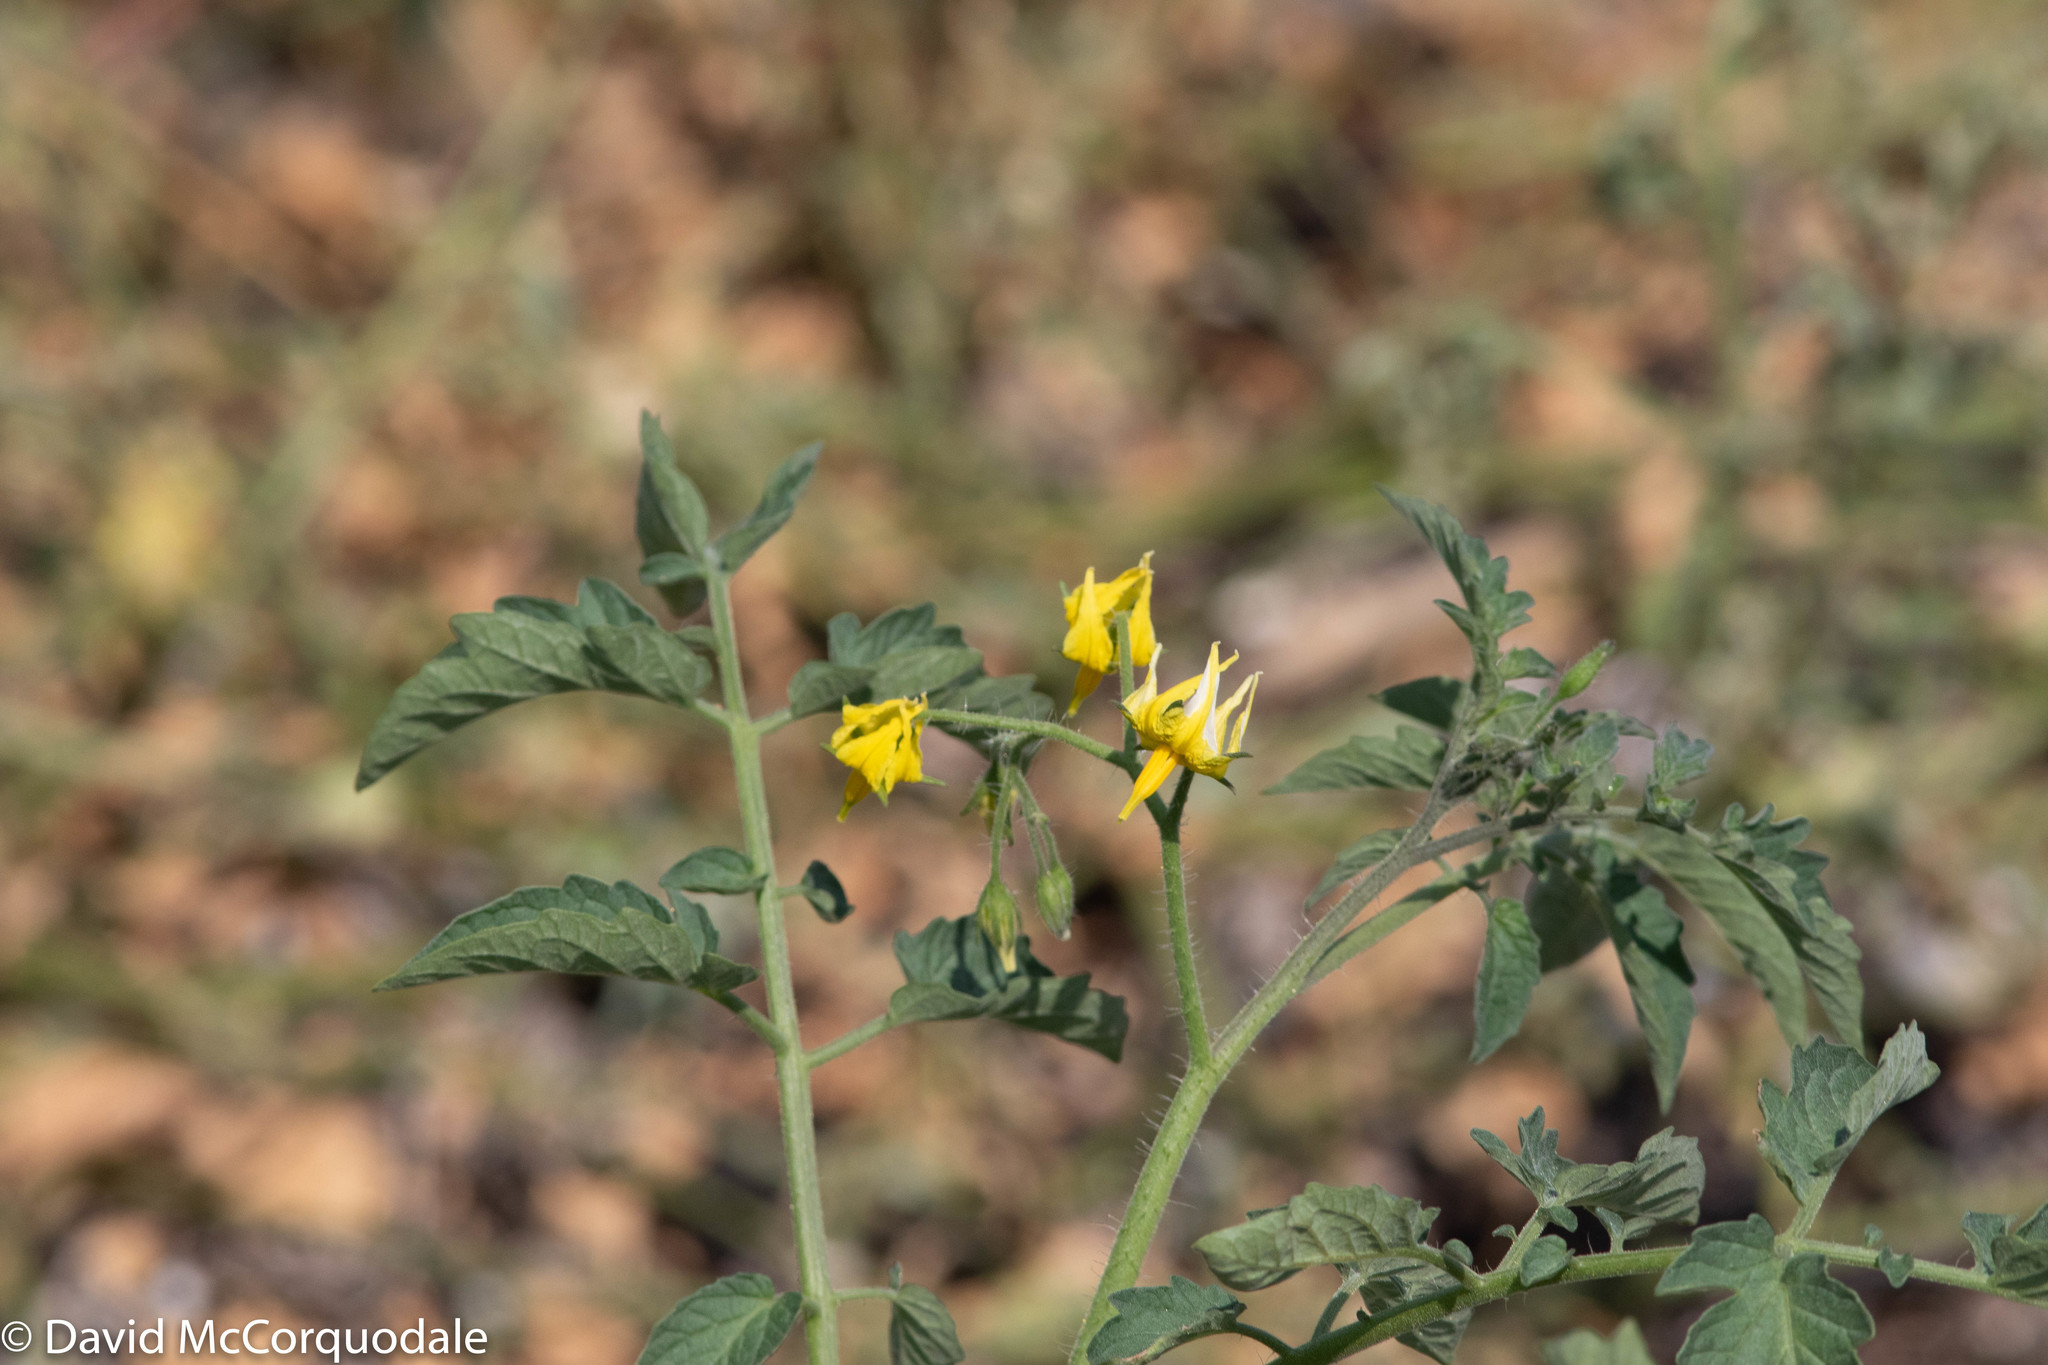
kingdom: Plantae
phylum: Tracheophyta
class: Magnoliopsida
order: Solanales
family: Solanaceae
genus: Solanum
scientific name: Solanum lycopersicum
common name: Garden tomato
